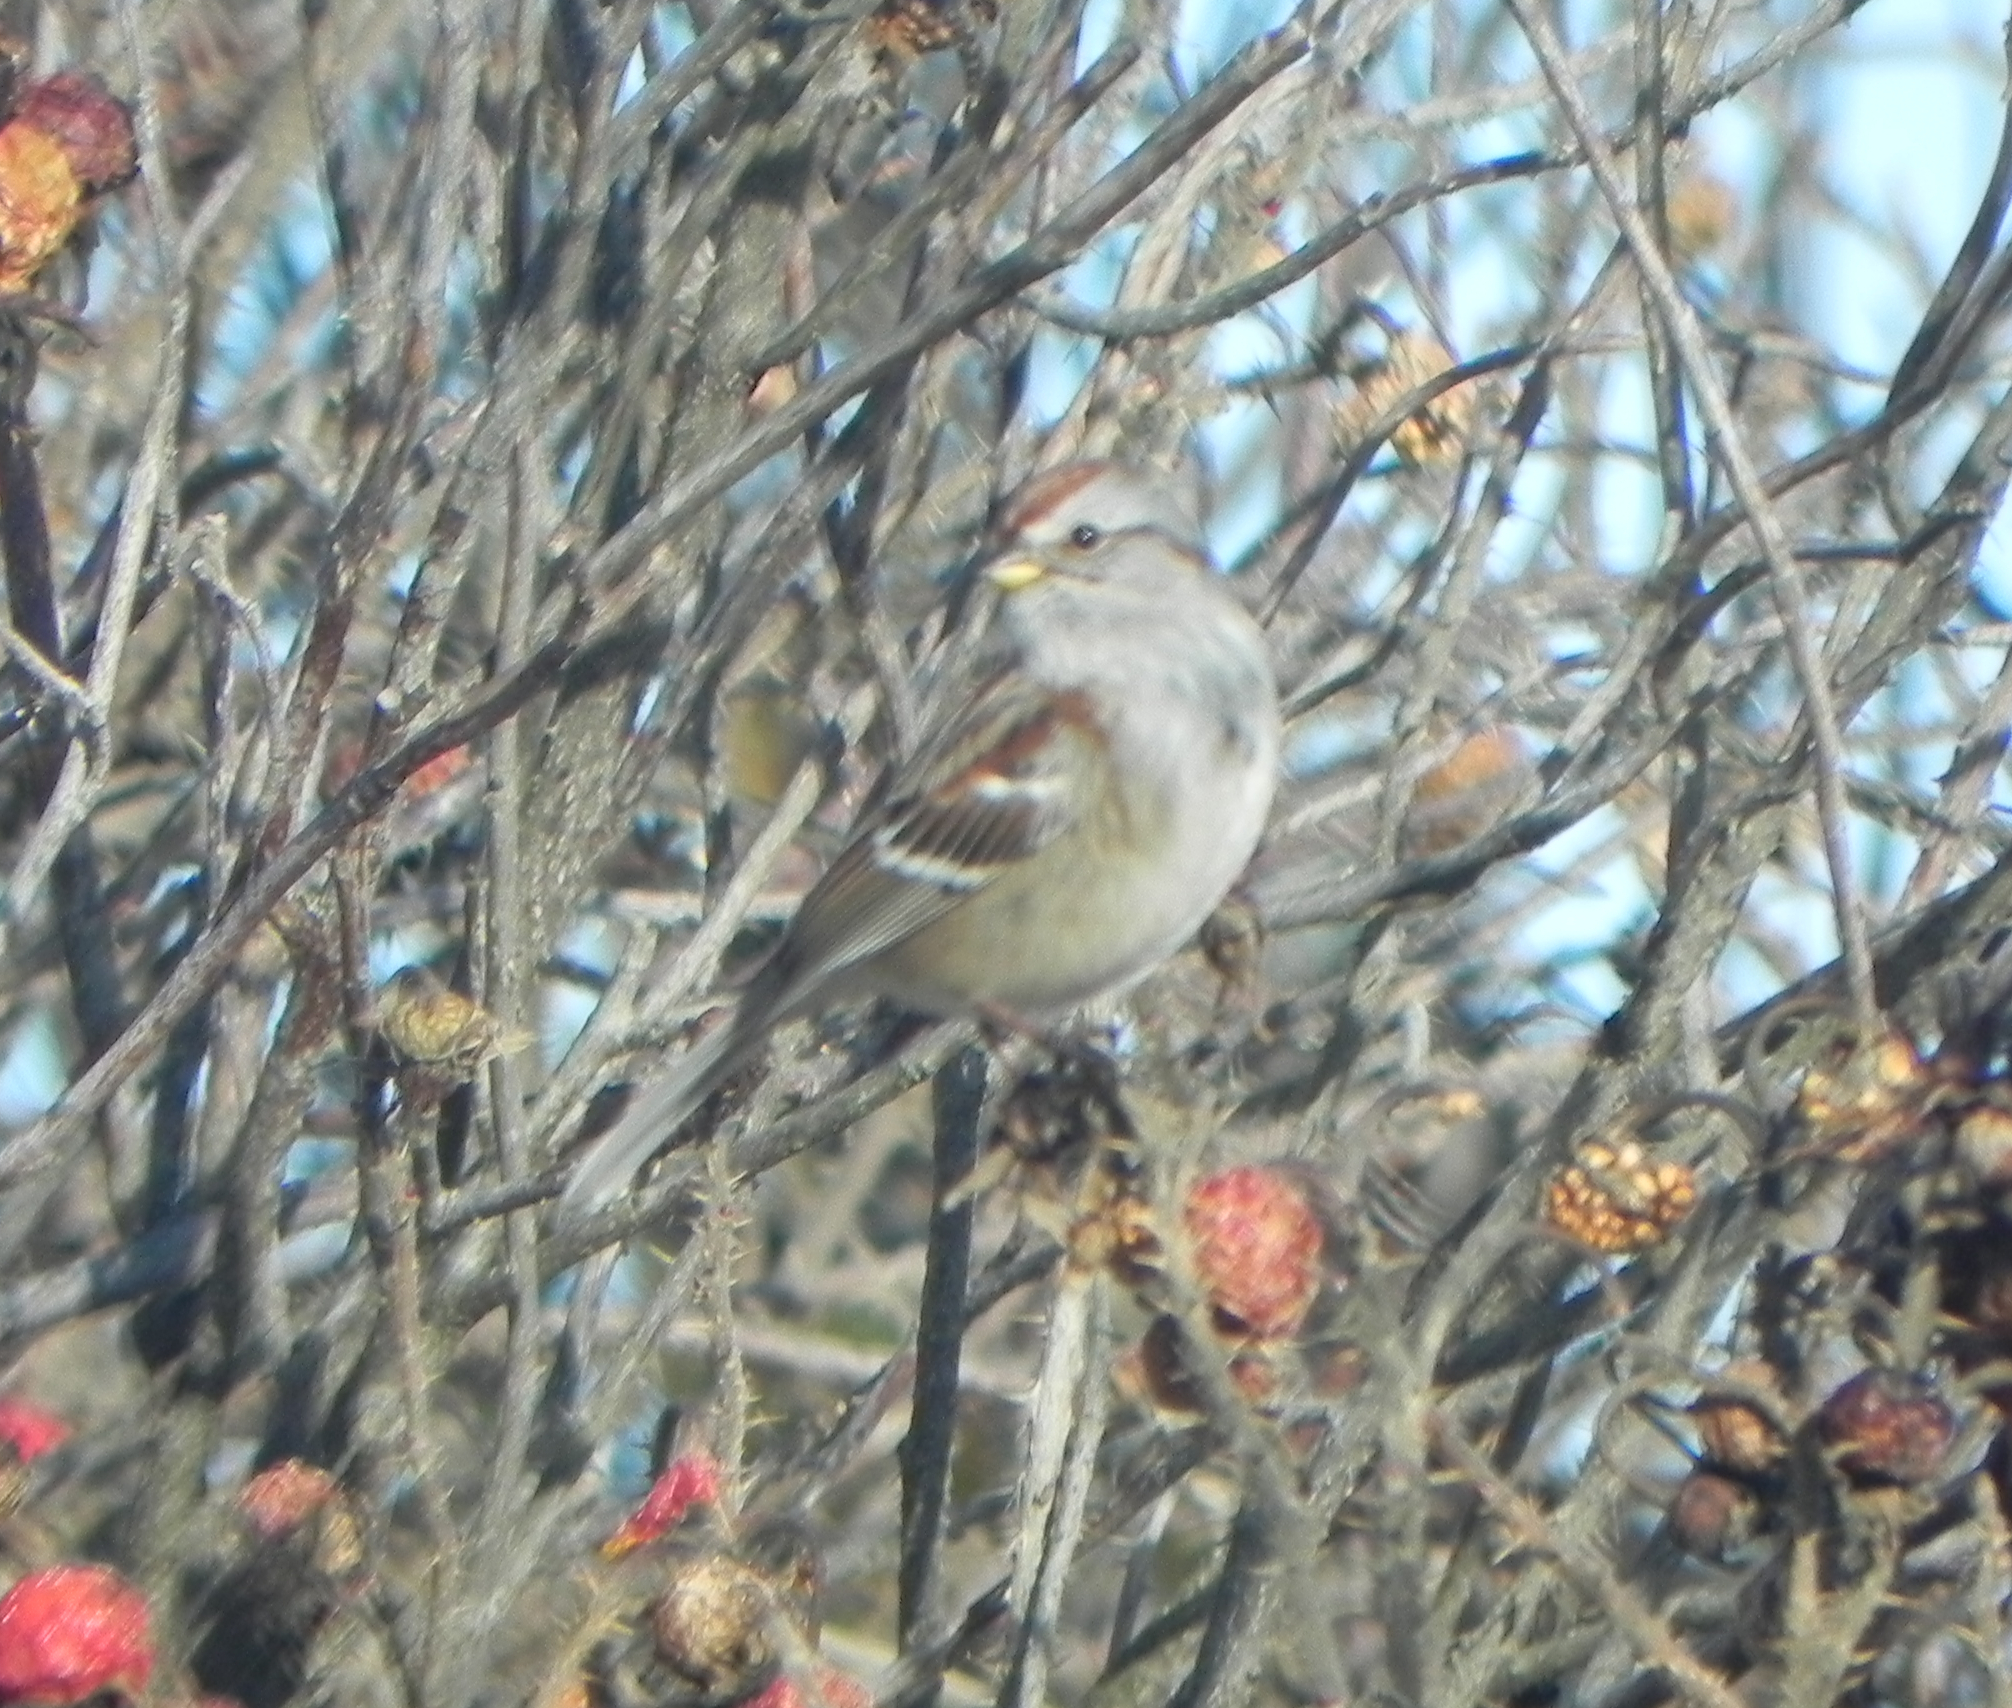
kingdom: Animalia
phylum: Chordata
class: Aves
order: Passeriformes
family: Passerellidae
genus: Spizelloides
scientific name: Spizelloides arborea
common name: American tree sparrow
